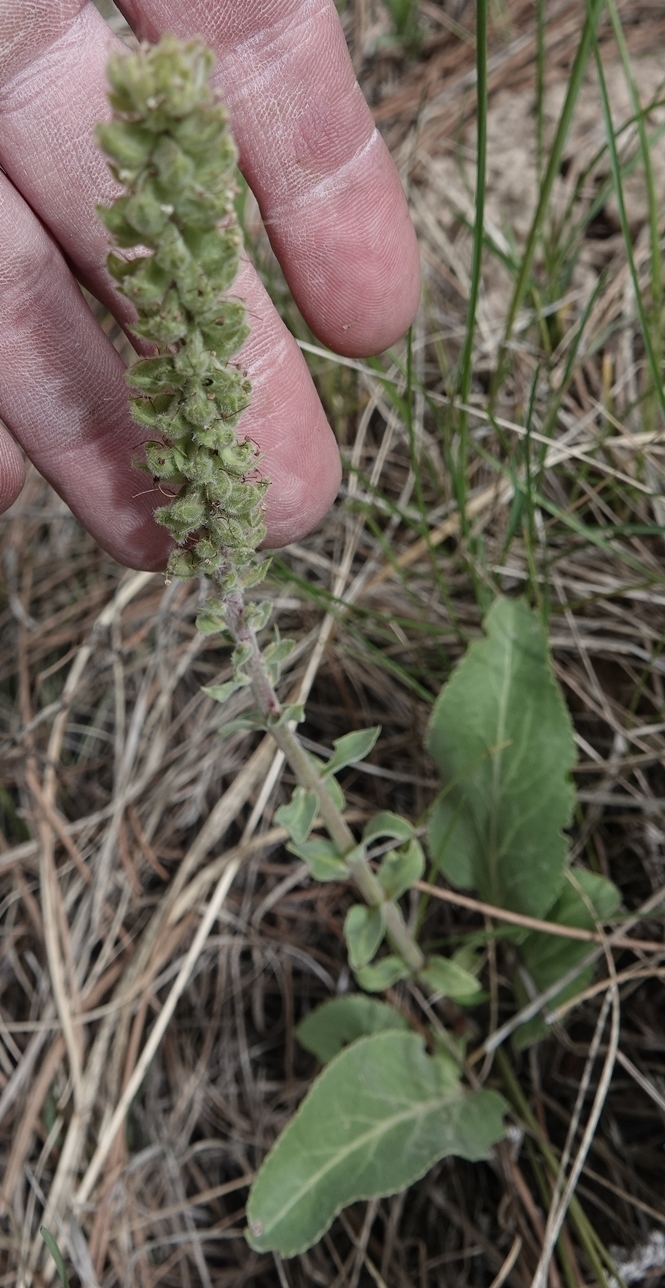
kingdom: Plantae
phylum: Tracheophyta
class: Magnoliopsida
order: Lamiales
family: Plantaginaceae
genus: Synthyris
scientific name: Synthyris wyomingensis
